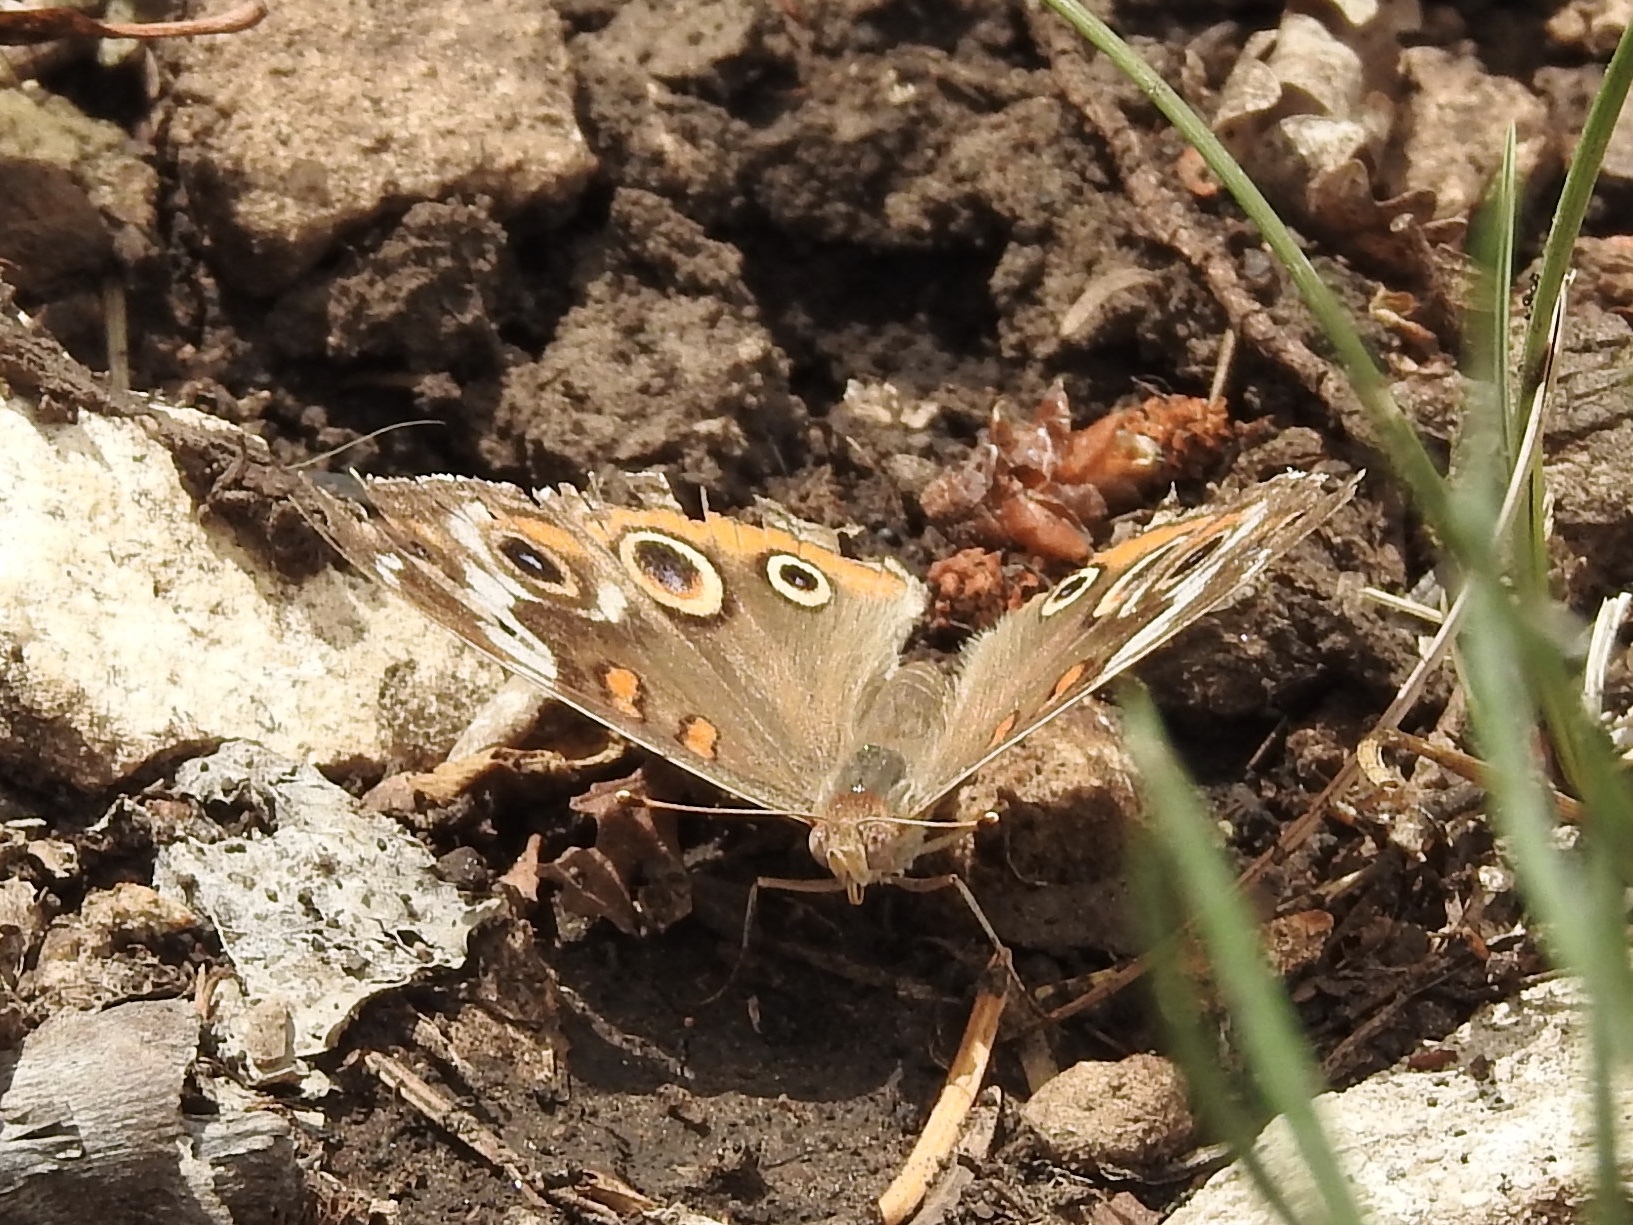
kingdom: Animalia
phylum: Arthropoda
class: Insecta
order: Lepidoptera
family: Nymphalidae
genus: Junonia
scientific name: Junonia grisea
